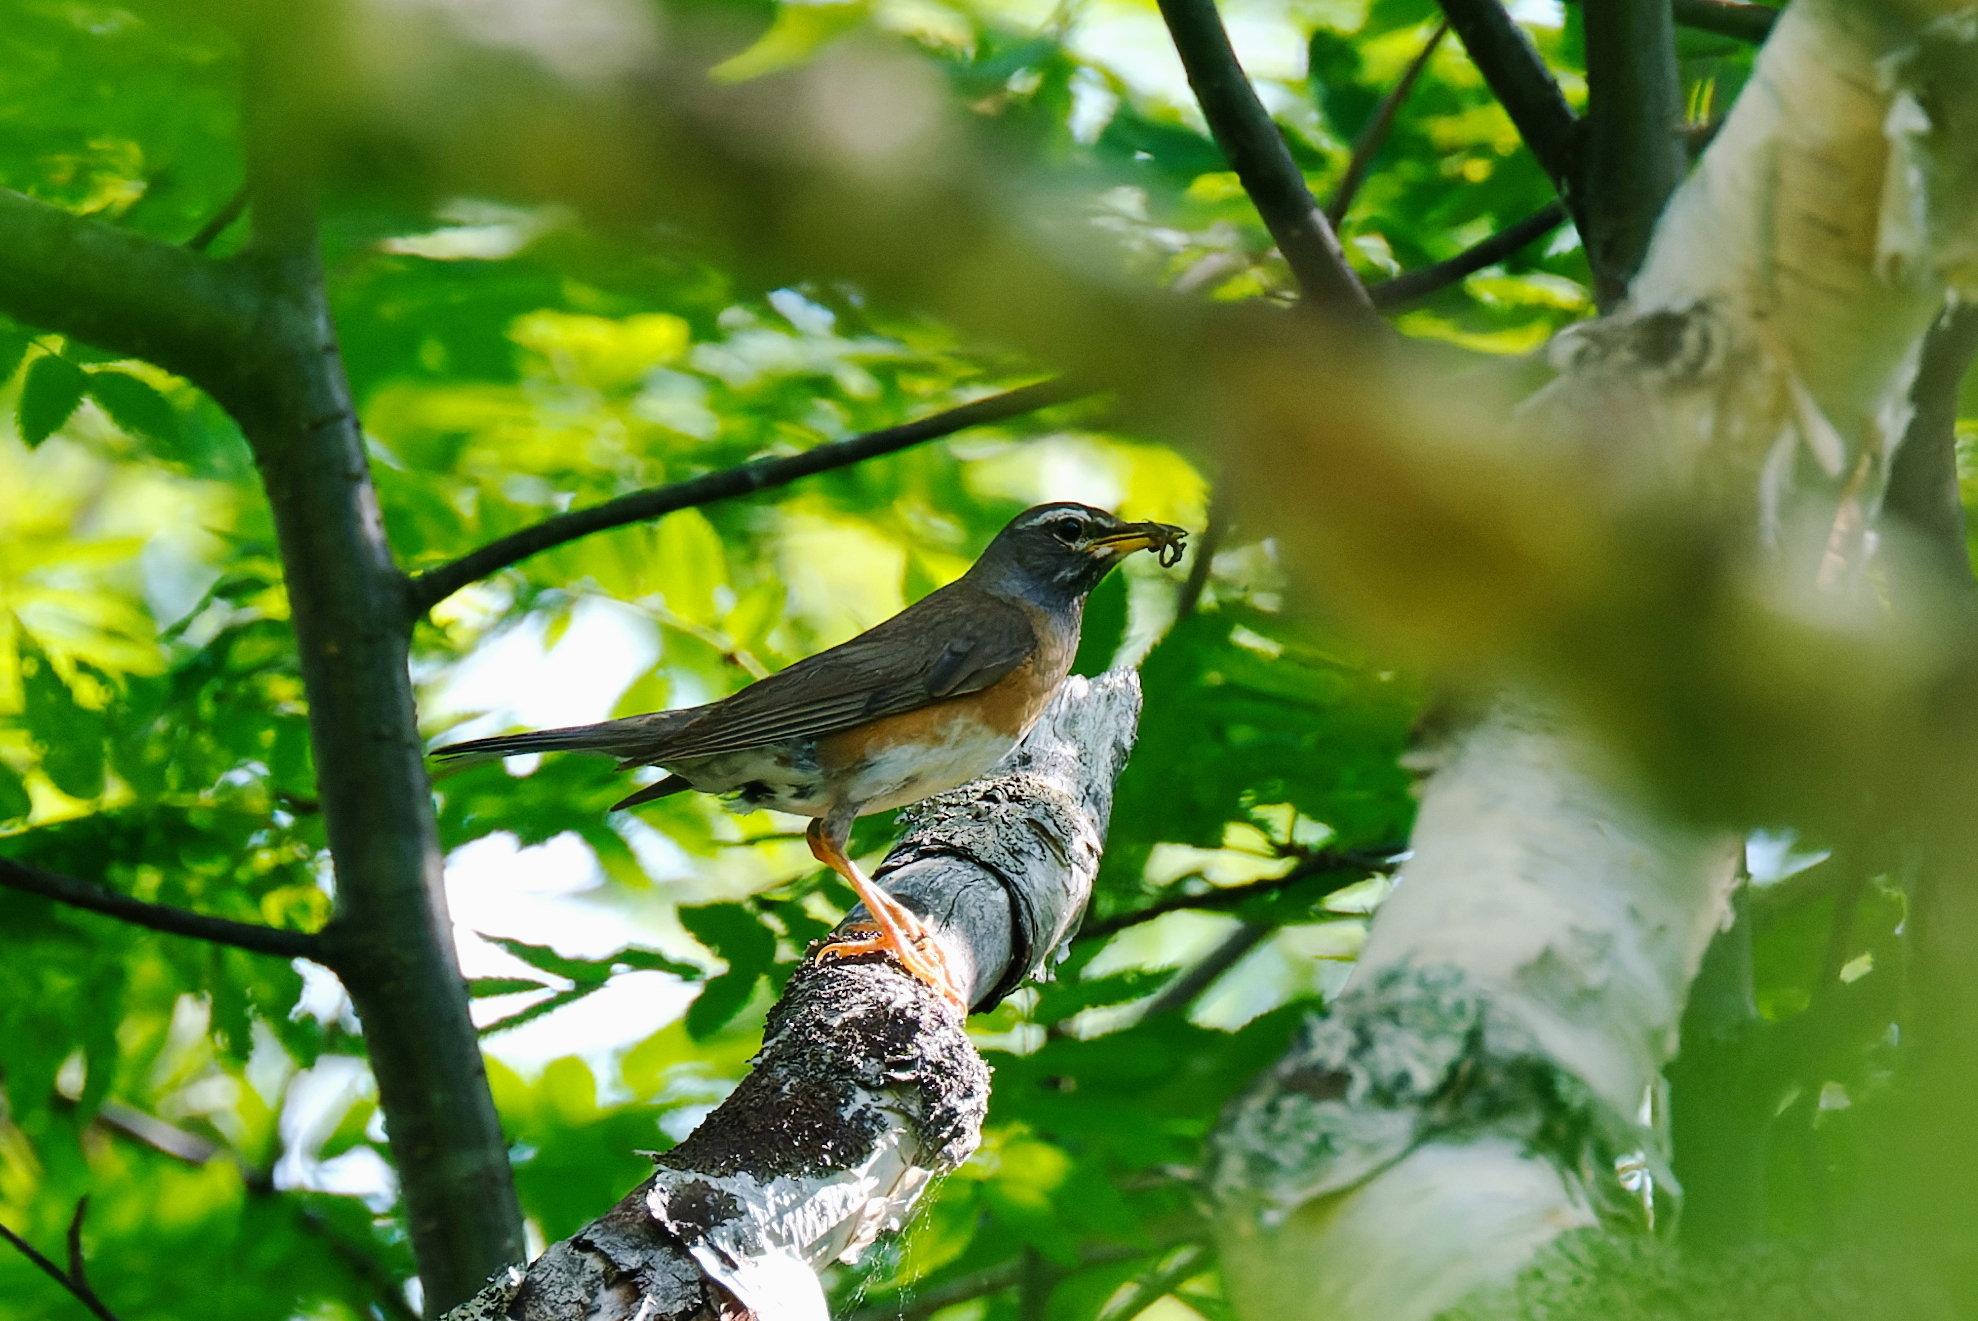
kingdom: Animalia
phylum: Chordata
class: Aves
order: Passeriformes
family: Turdidae
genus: Turdus
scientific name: Turdus obscurus
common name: Eyebrowed thrush
